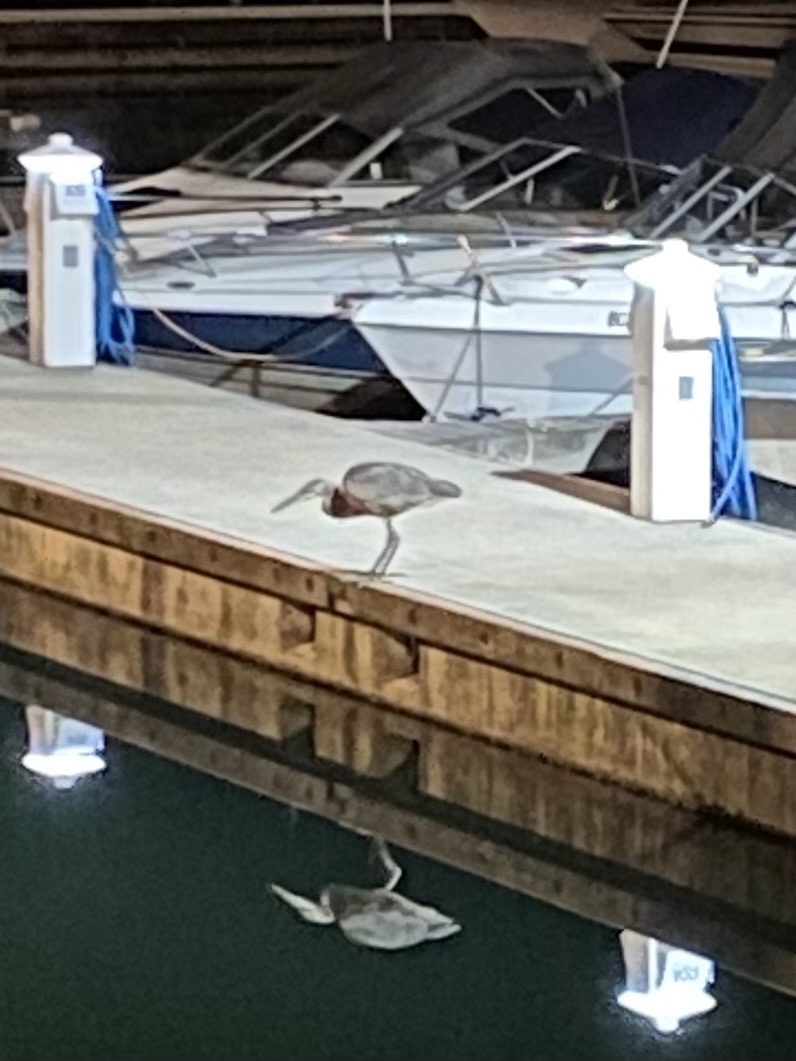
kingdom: Animalia
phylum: Chordata
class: Aves
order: Pelecaniformes
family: Ardeidae
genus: Ardea
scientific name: Ardea herodias
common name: Great blue heron
